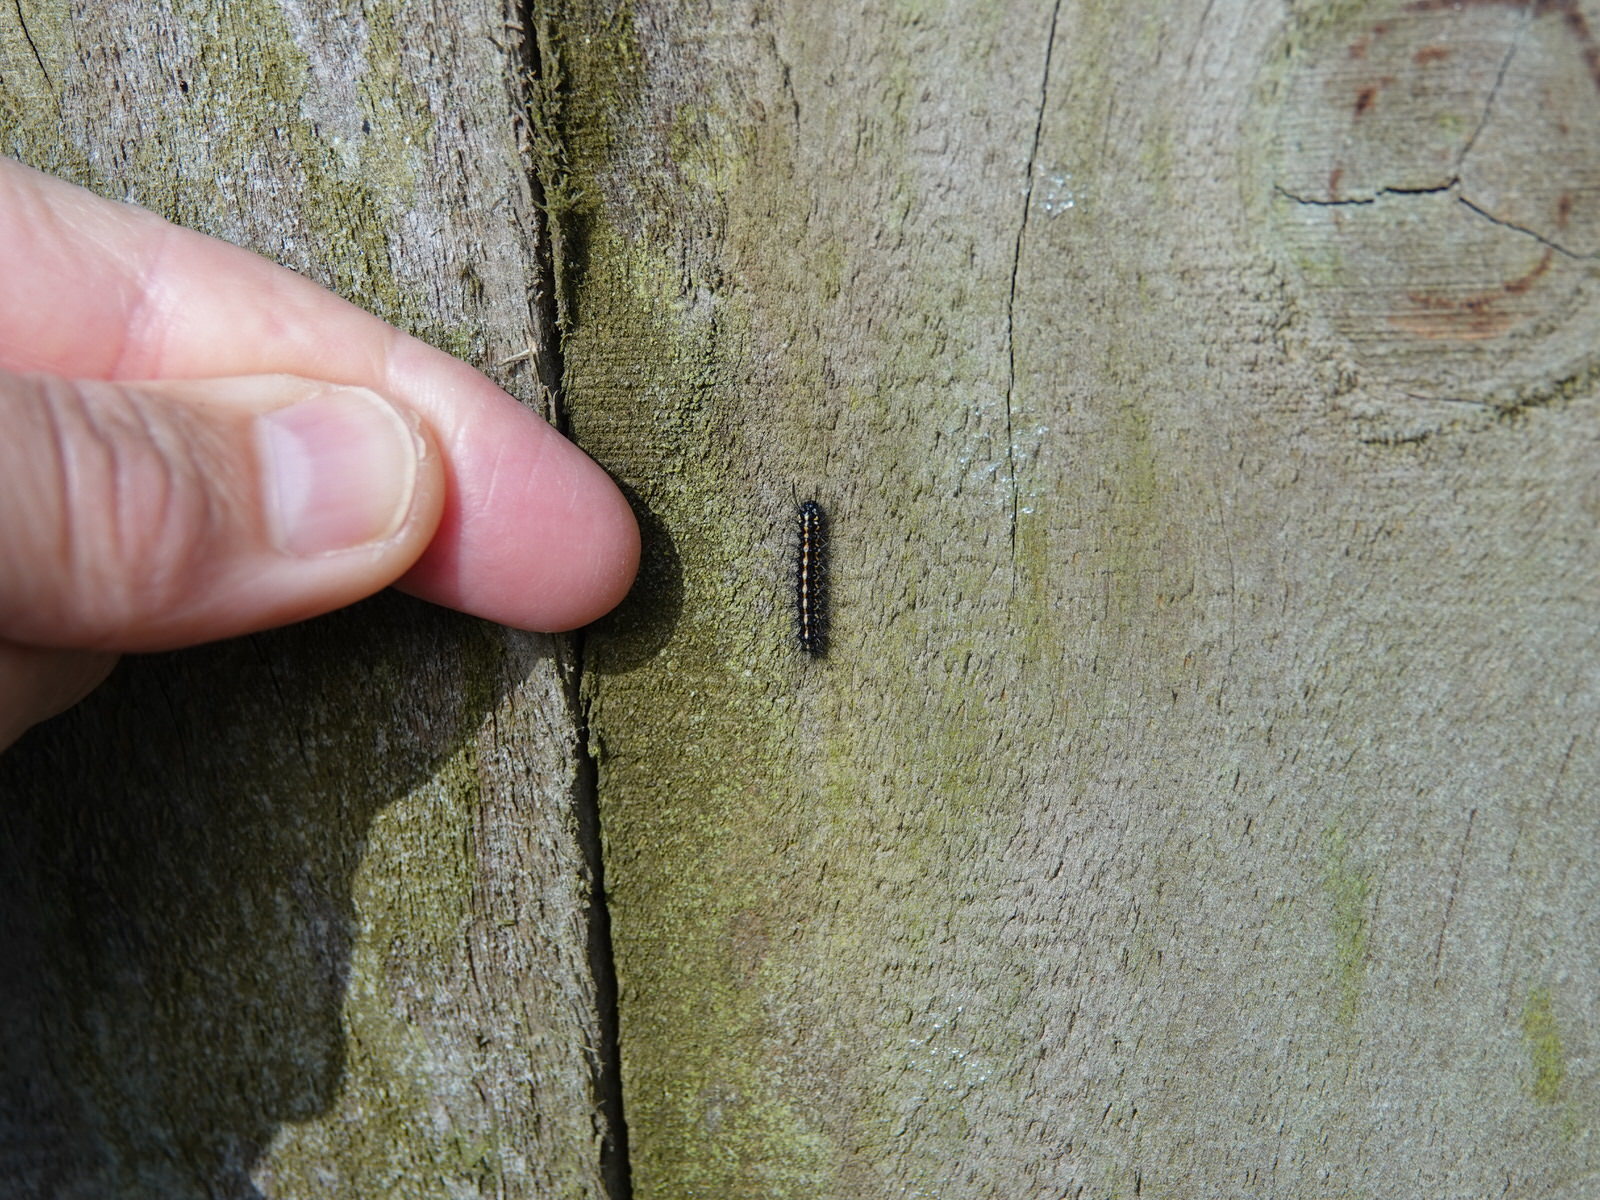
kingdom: Animalia
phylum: Arthropoda
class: Insecta
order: Lepidoptera
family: Erebidae
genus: Nyctemera
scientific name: Nyctemera amicus
